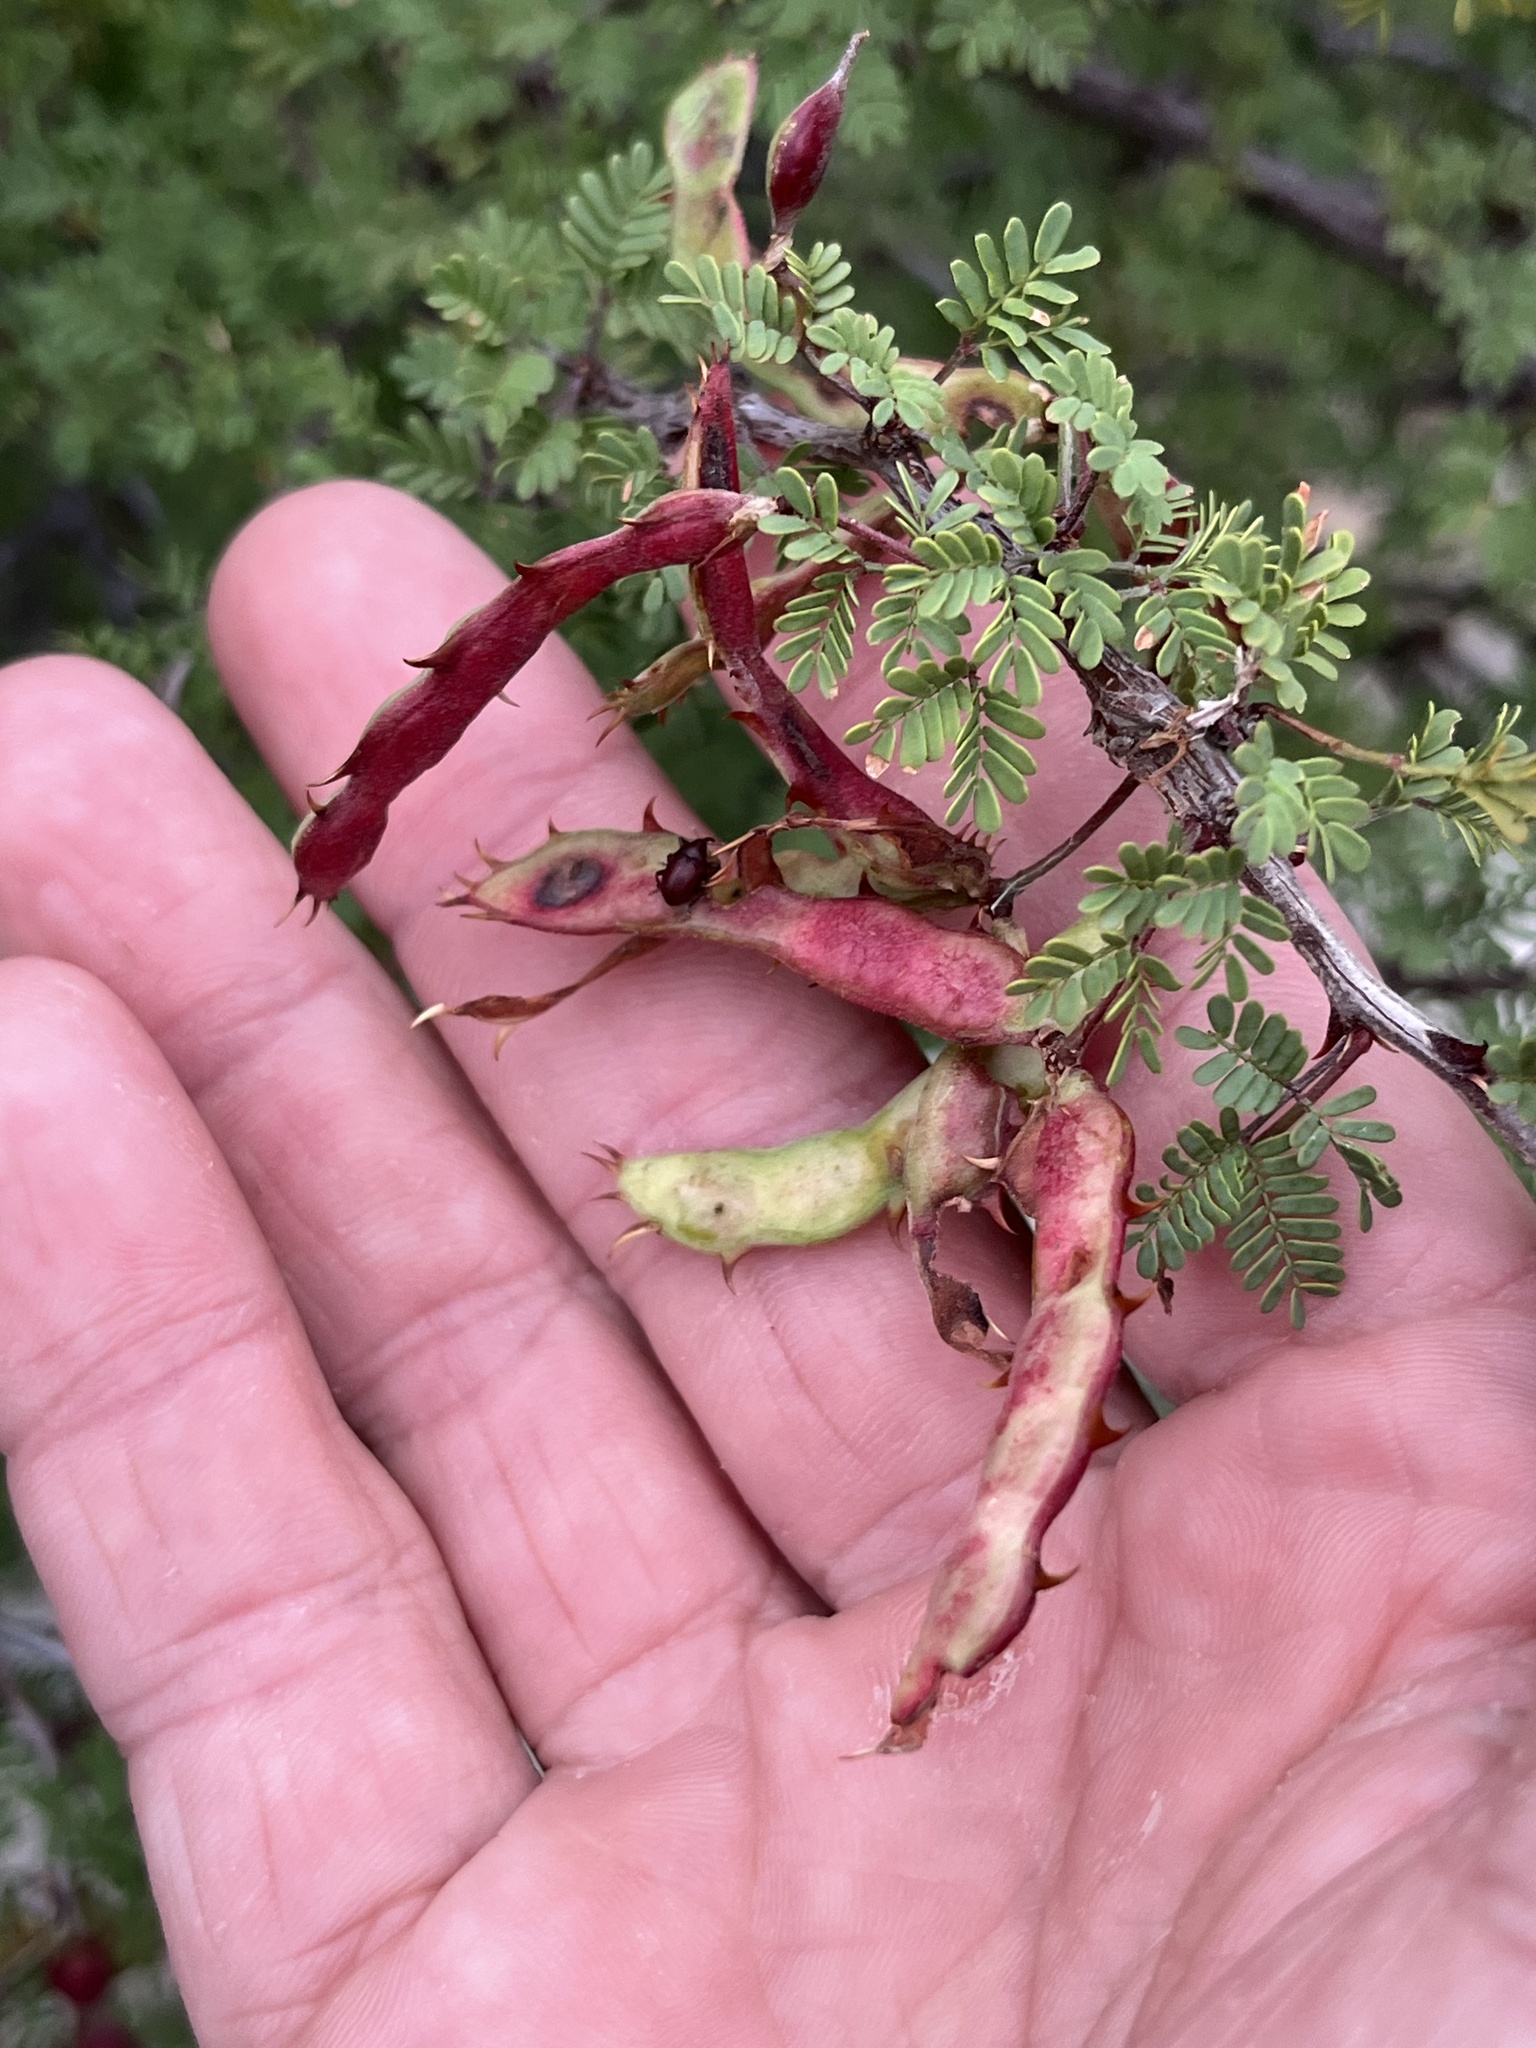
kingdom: Plantae
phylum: Tracheophyta
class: Magnoliopsida
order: Fabales
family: Fabaceae
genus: Mimosa
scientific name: Mimosa texana
